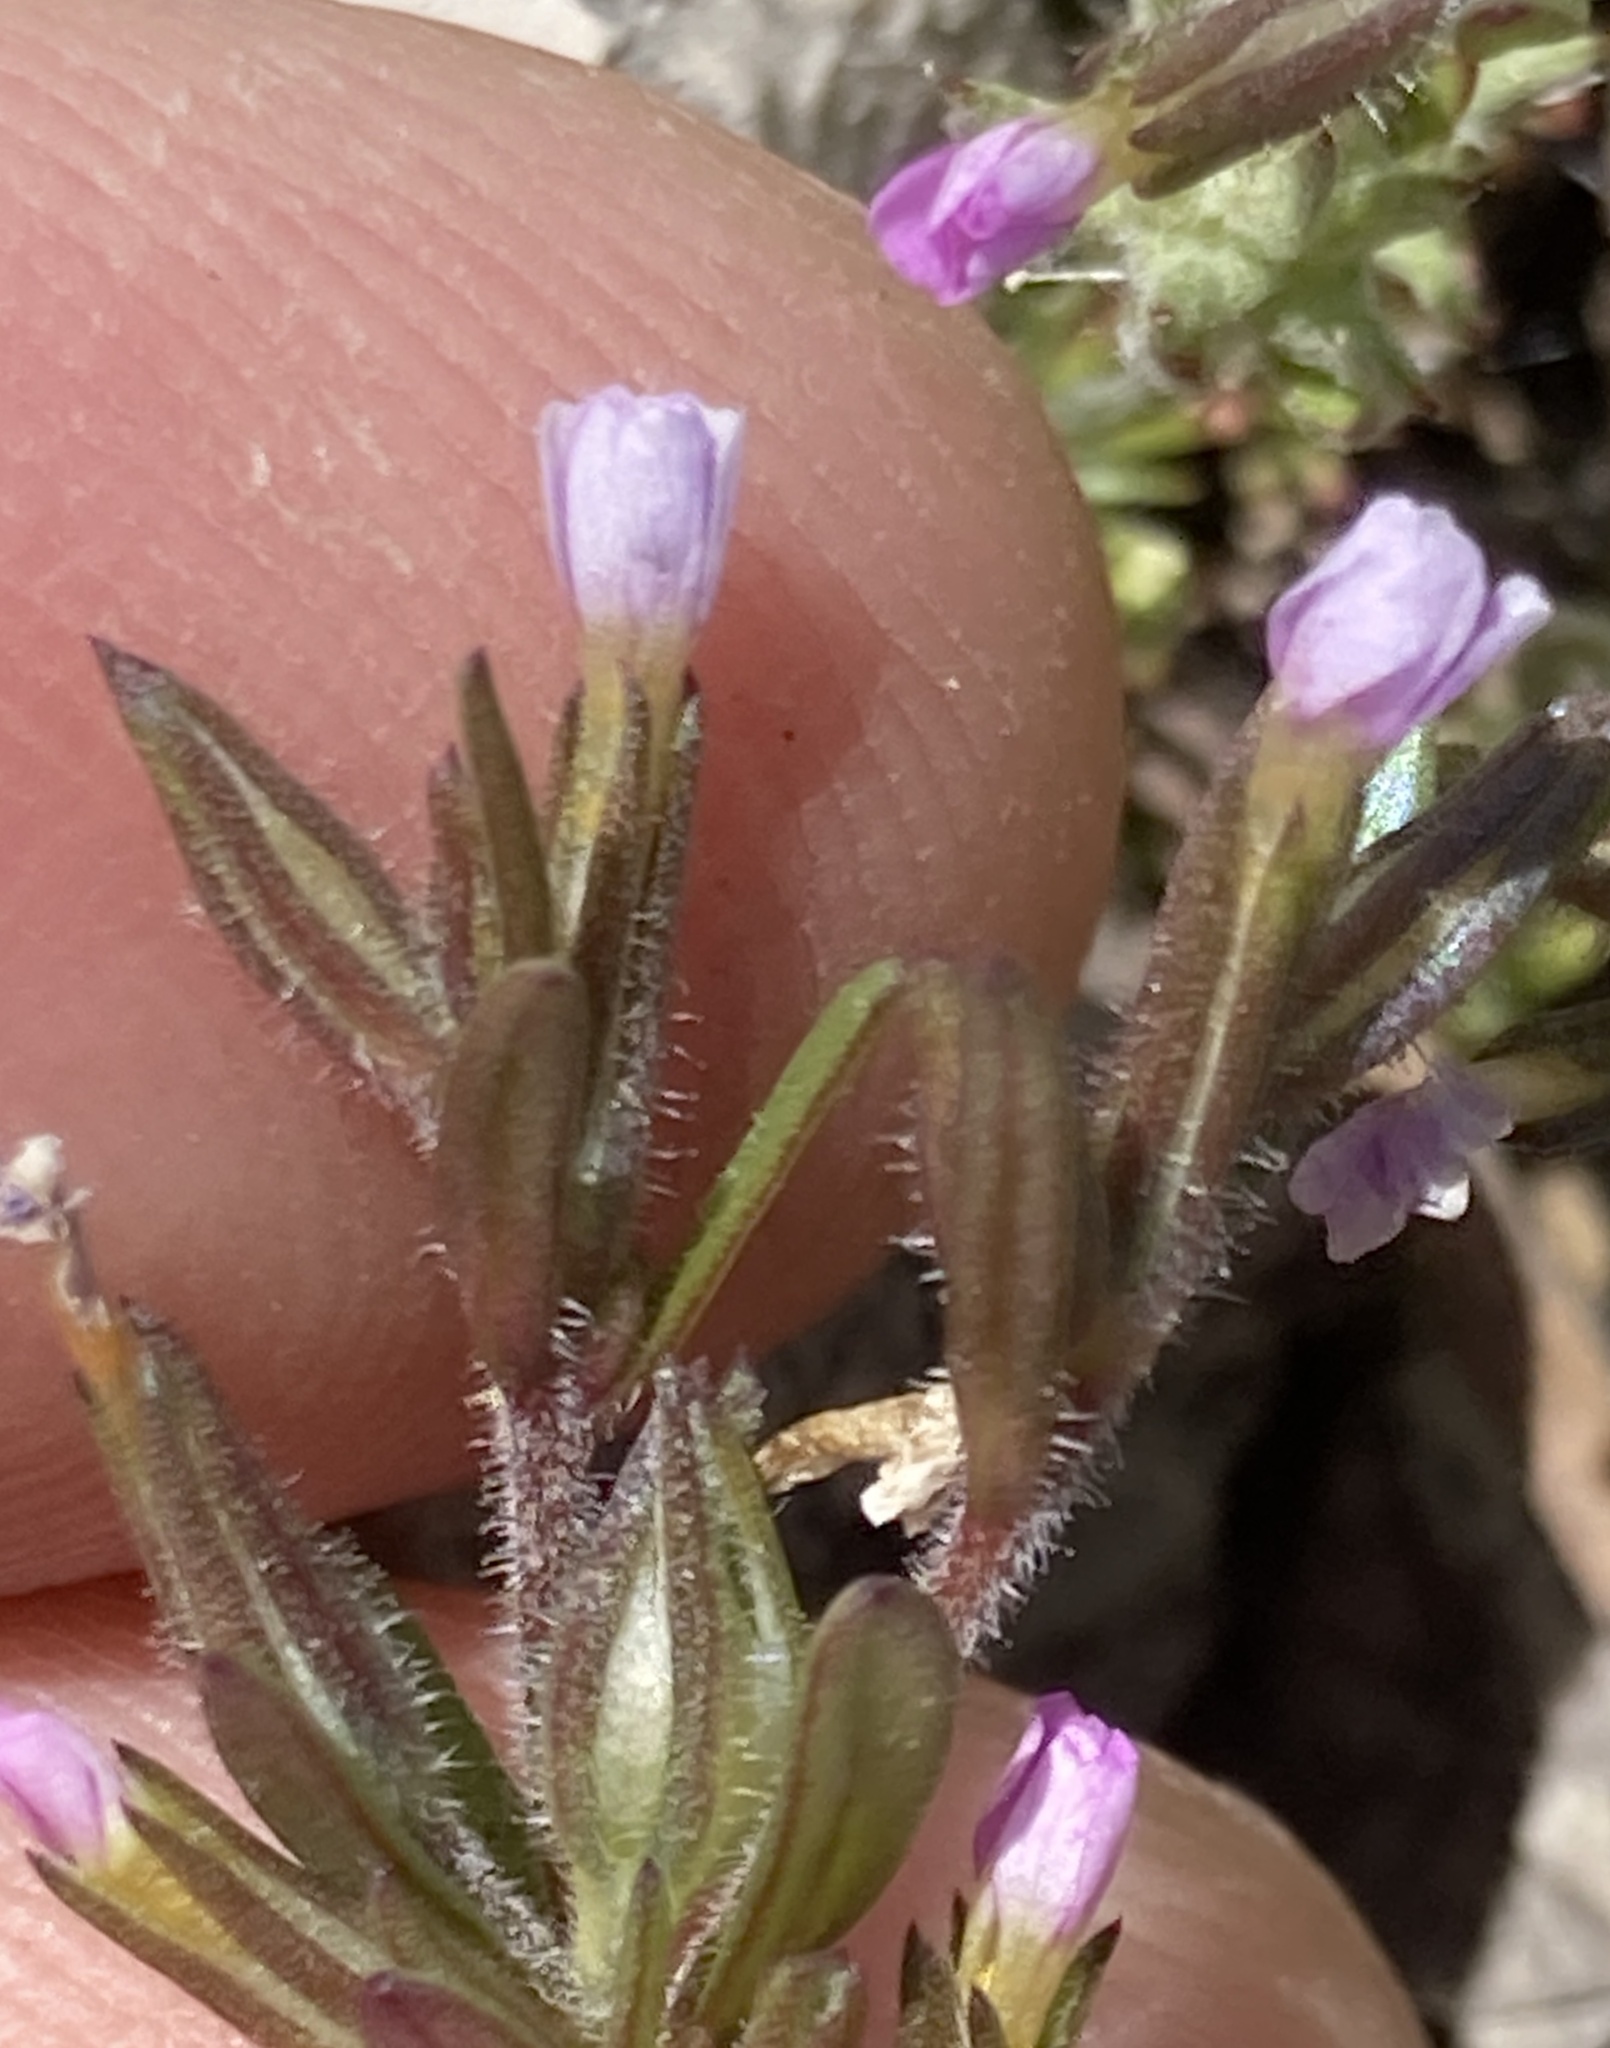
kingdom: Plantae
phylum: Tracheophyta
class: Magnoliopsida
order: Ericales
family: Polemoniaceae
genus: Phlox
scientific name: Phlox gracilis
